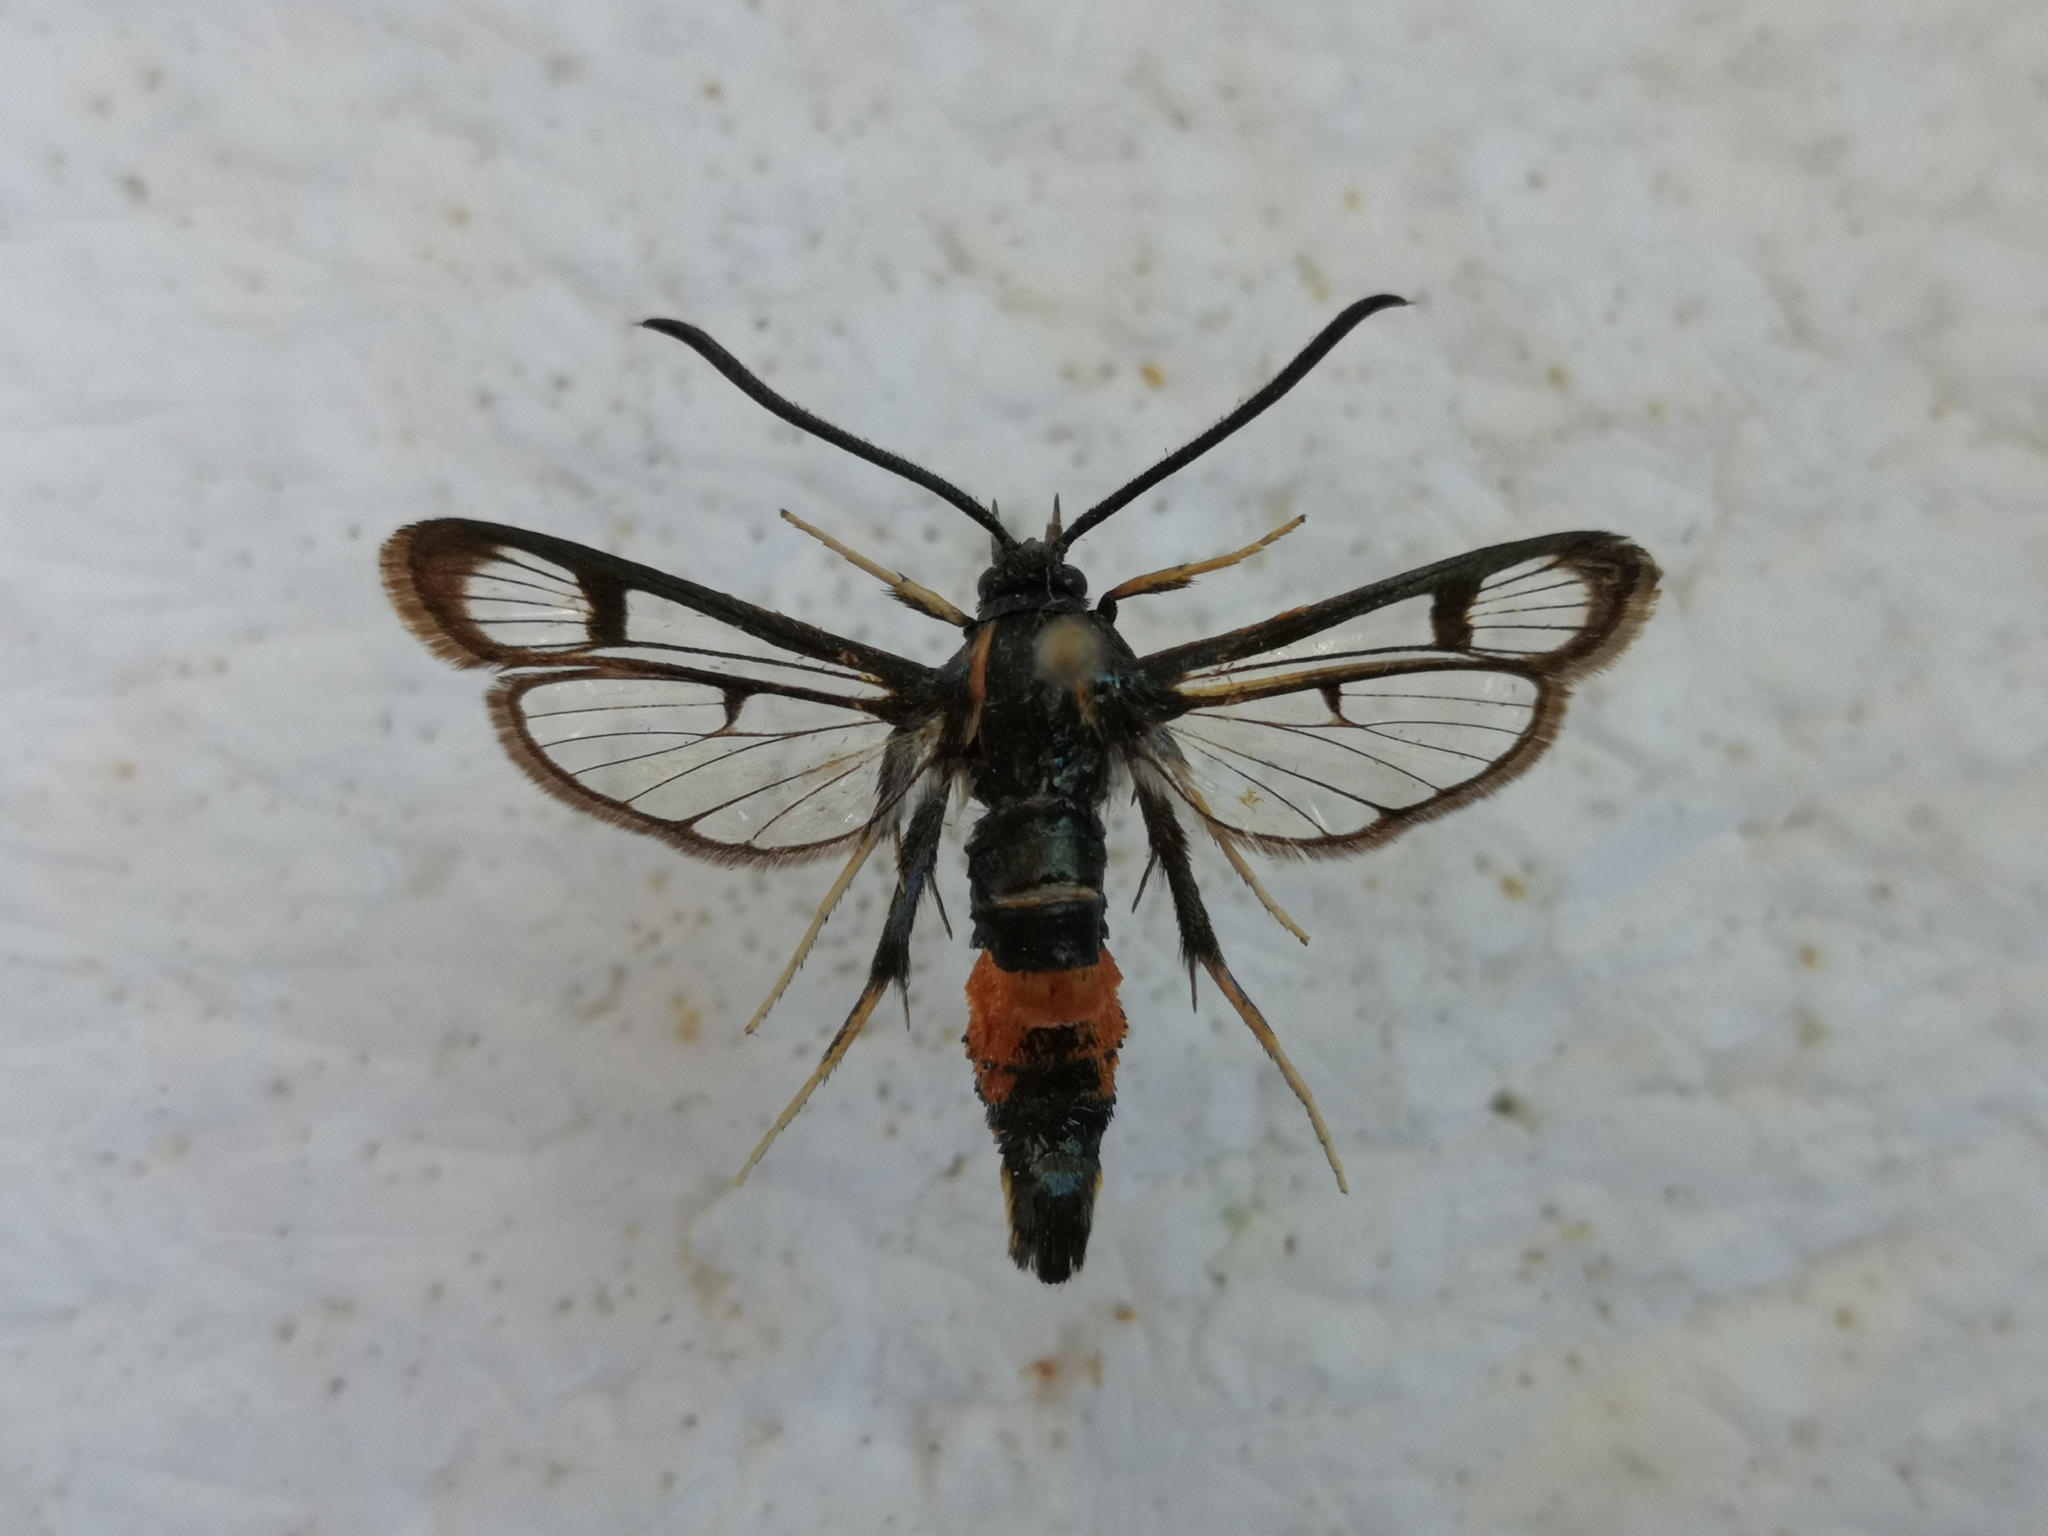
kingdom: Animalia
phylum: Arthropoda
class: Insecta
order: Lepidoptera
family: Sesiidae
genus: Synanthedon
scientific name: Synanthedon stomoxiformis
